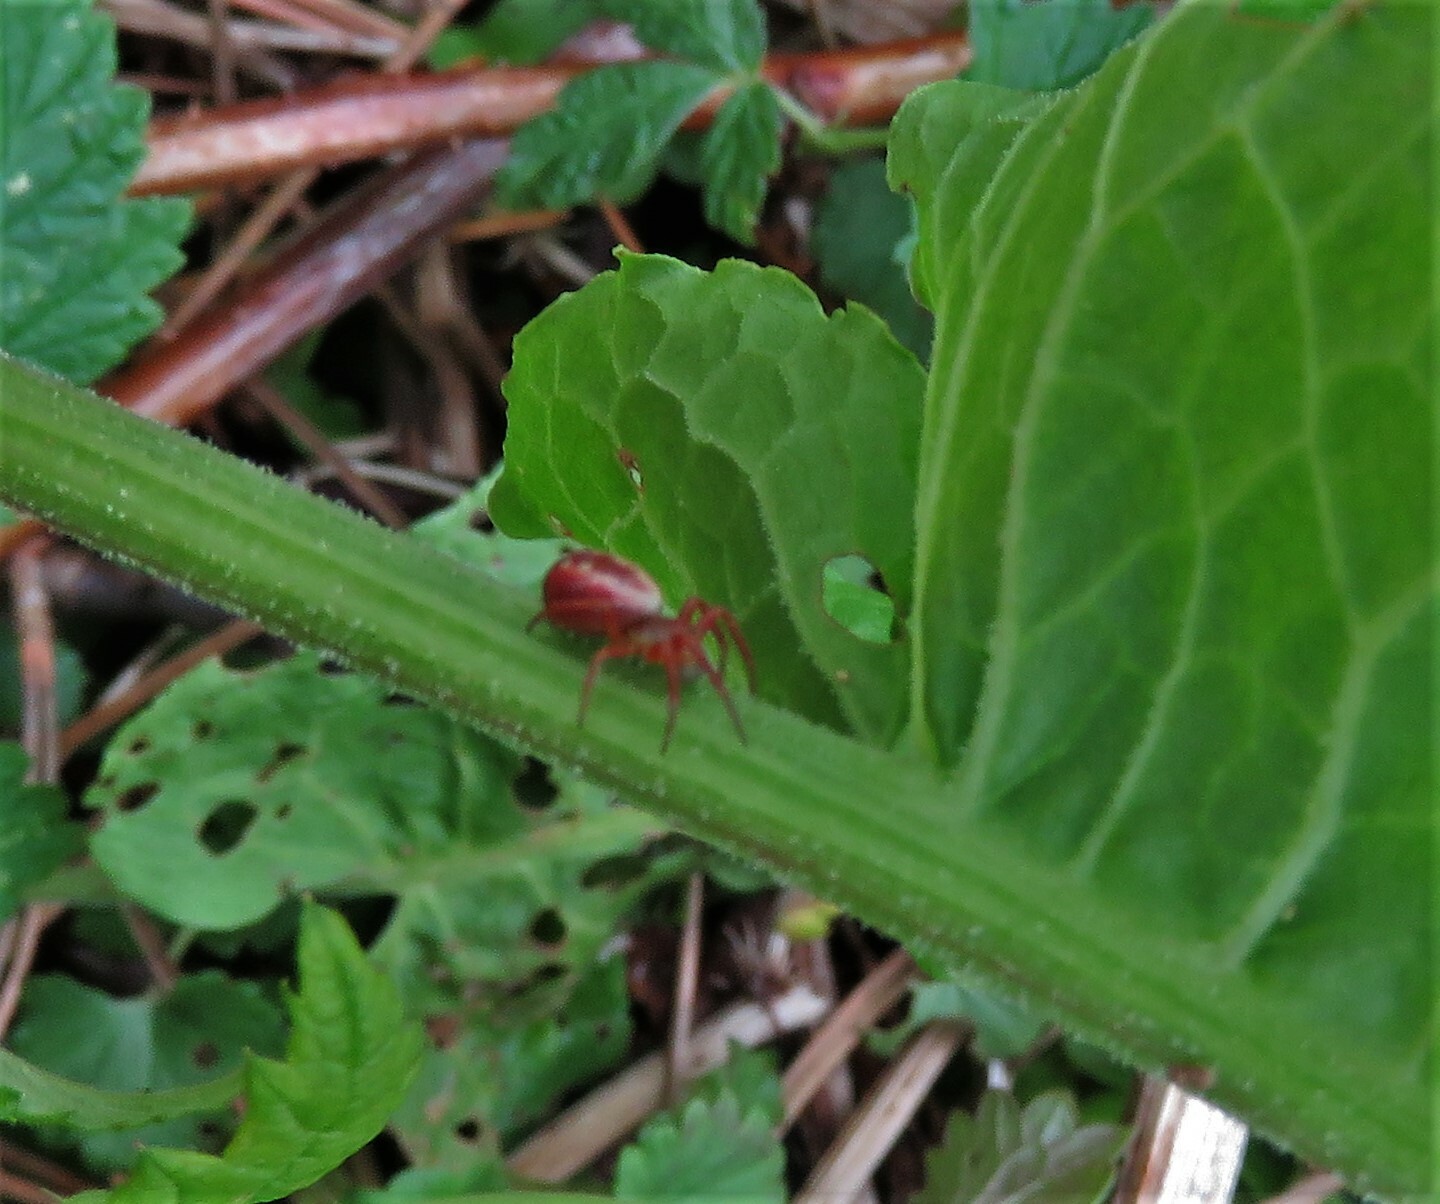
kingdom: Animalia
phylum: Arthropoda
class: Arachnida
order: Araneae
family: Araneidae
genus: Araniella
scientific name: Araniella displicata
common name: Sixspotted orb weaver
